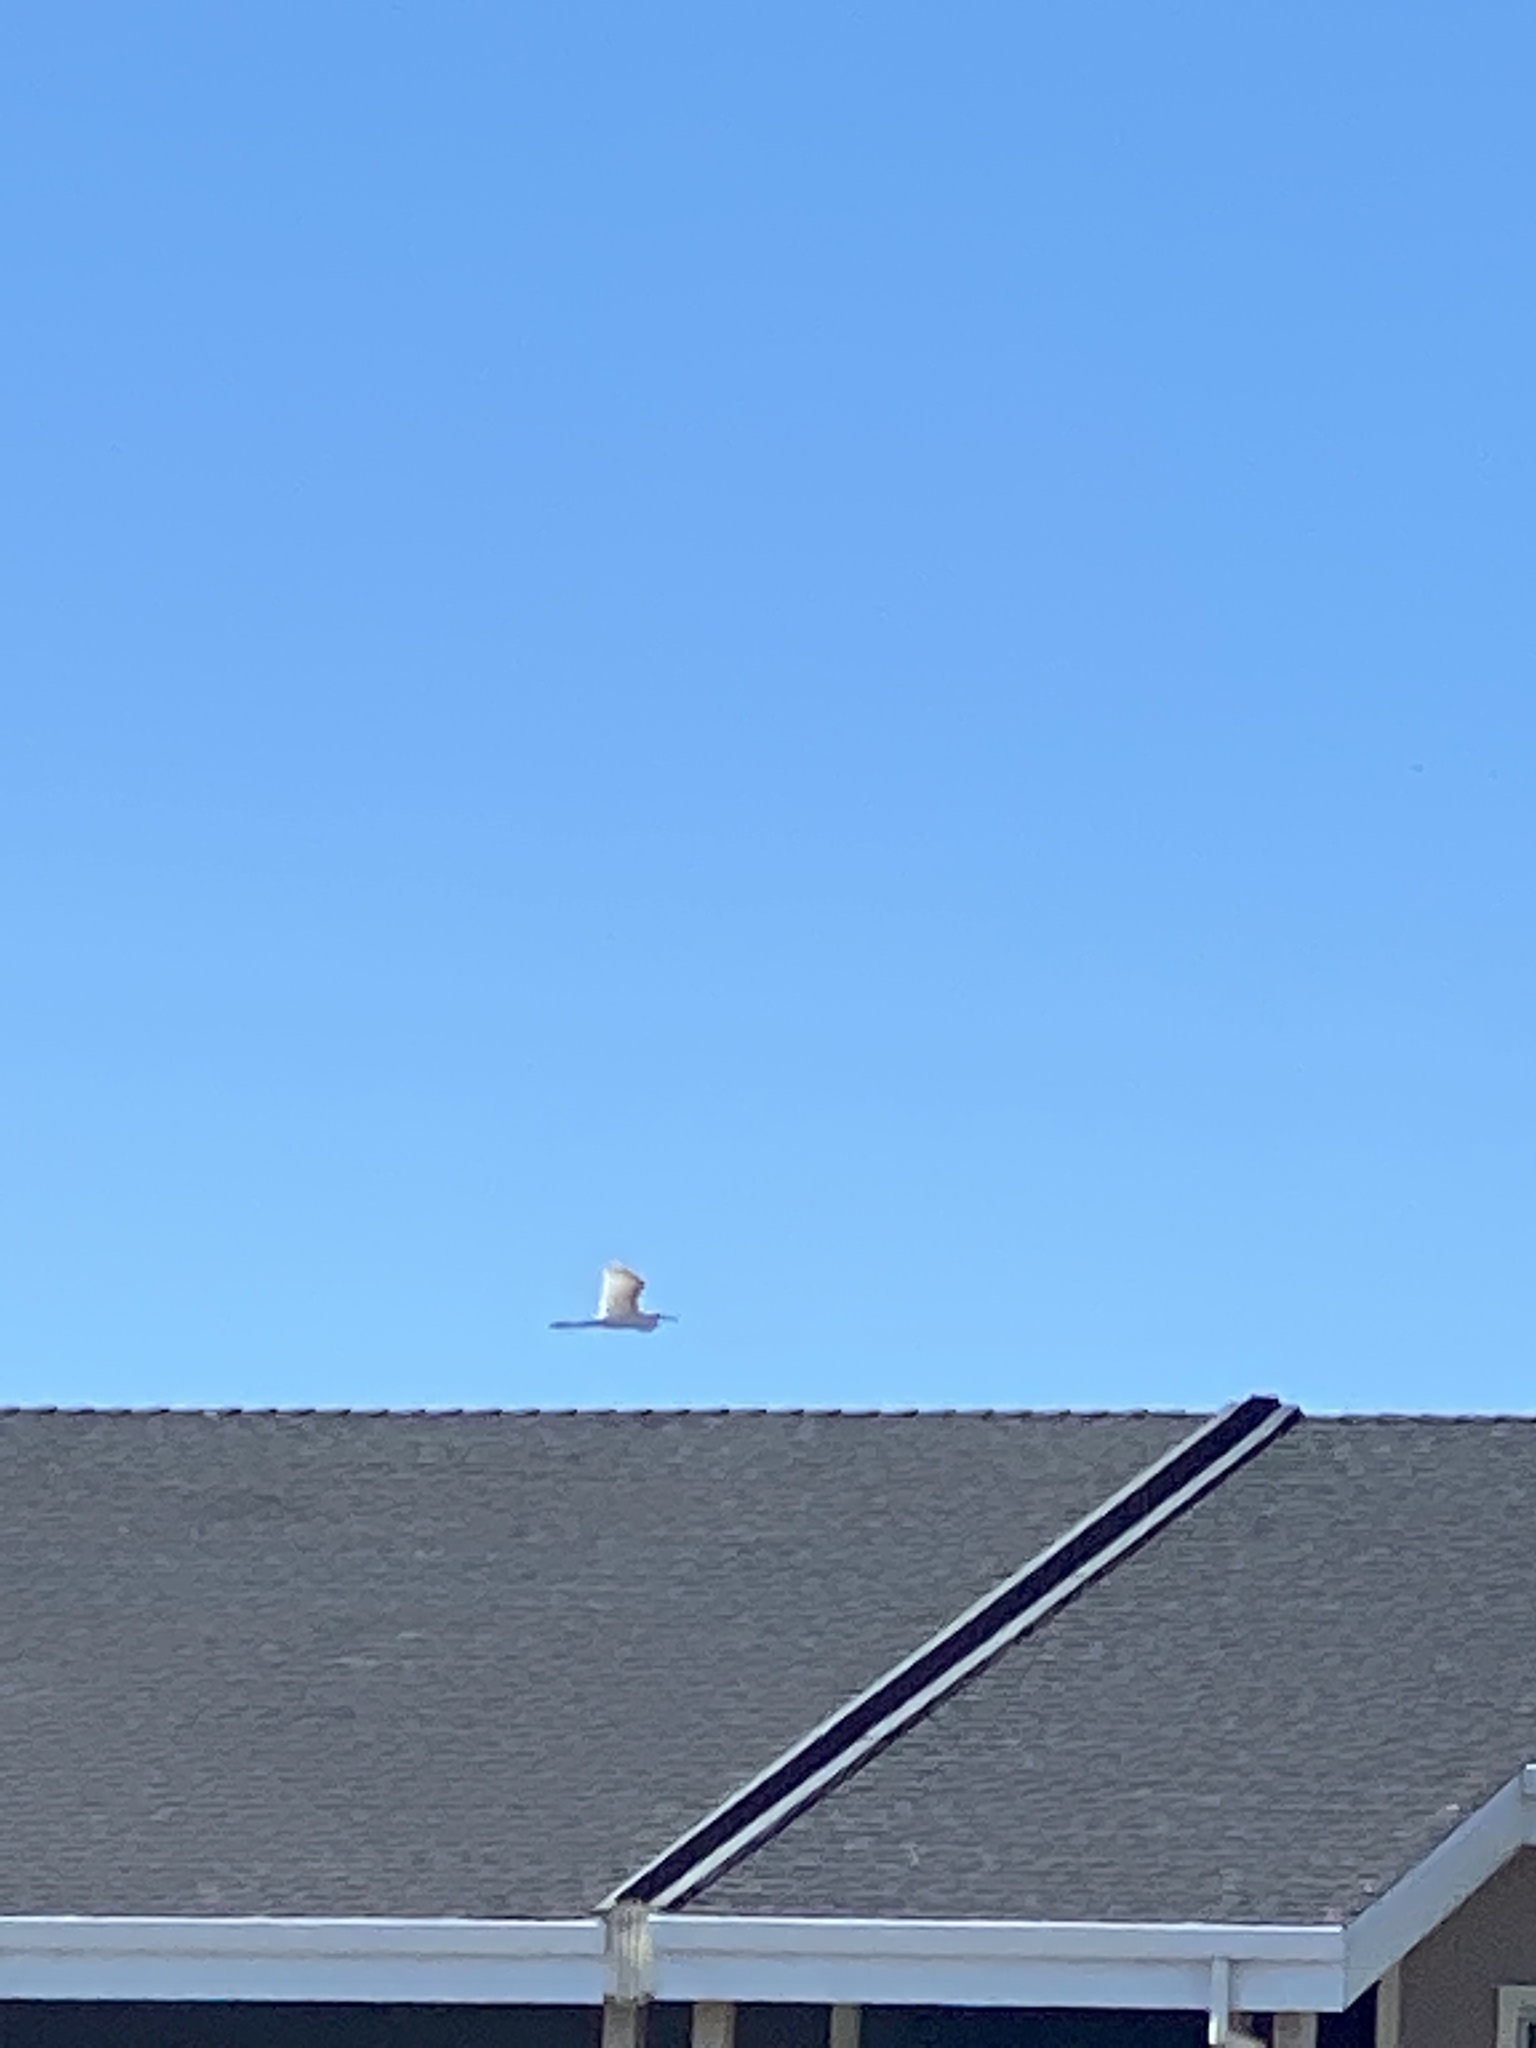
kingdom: Animalia
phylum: Chordata
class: Aves
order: Pelecaniformes
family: Ardeidae
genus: Ardea
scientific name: Ardea alba
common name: Great egret
